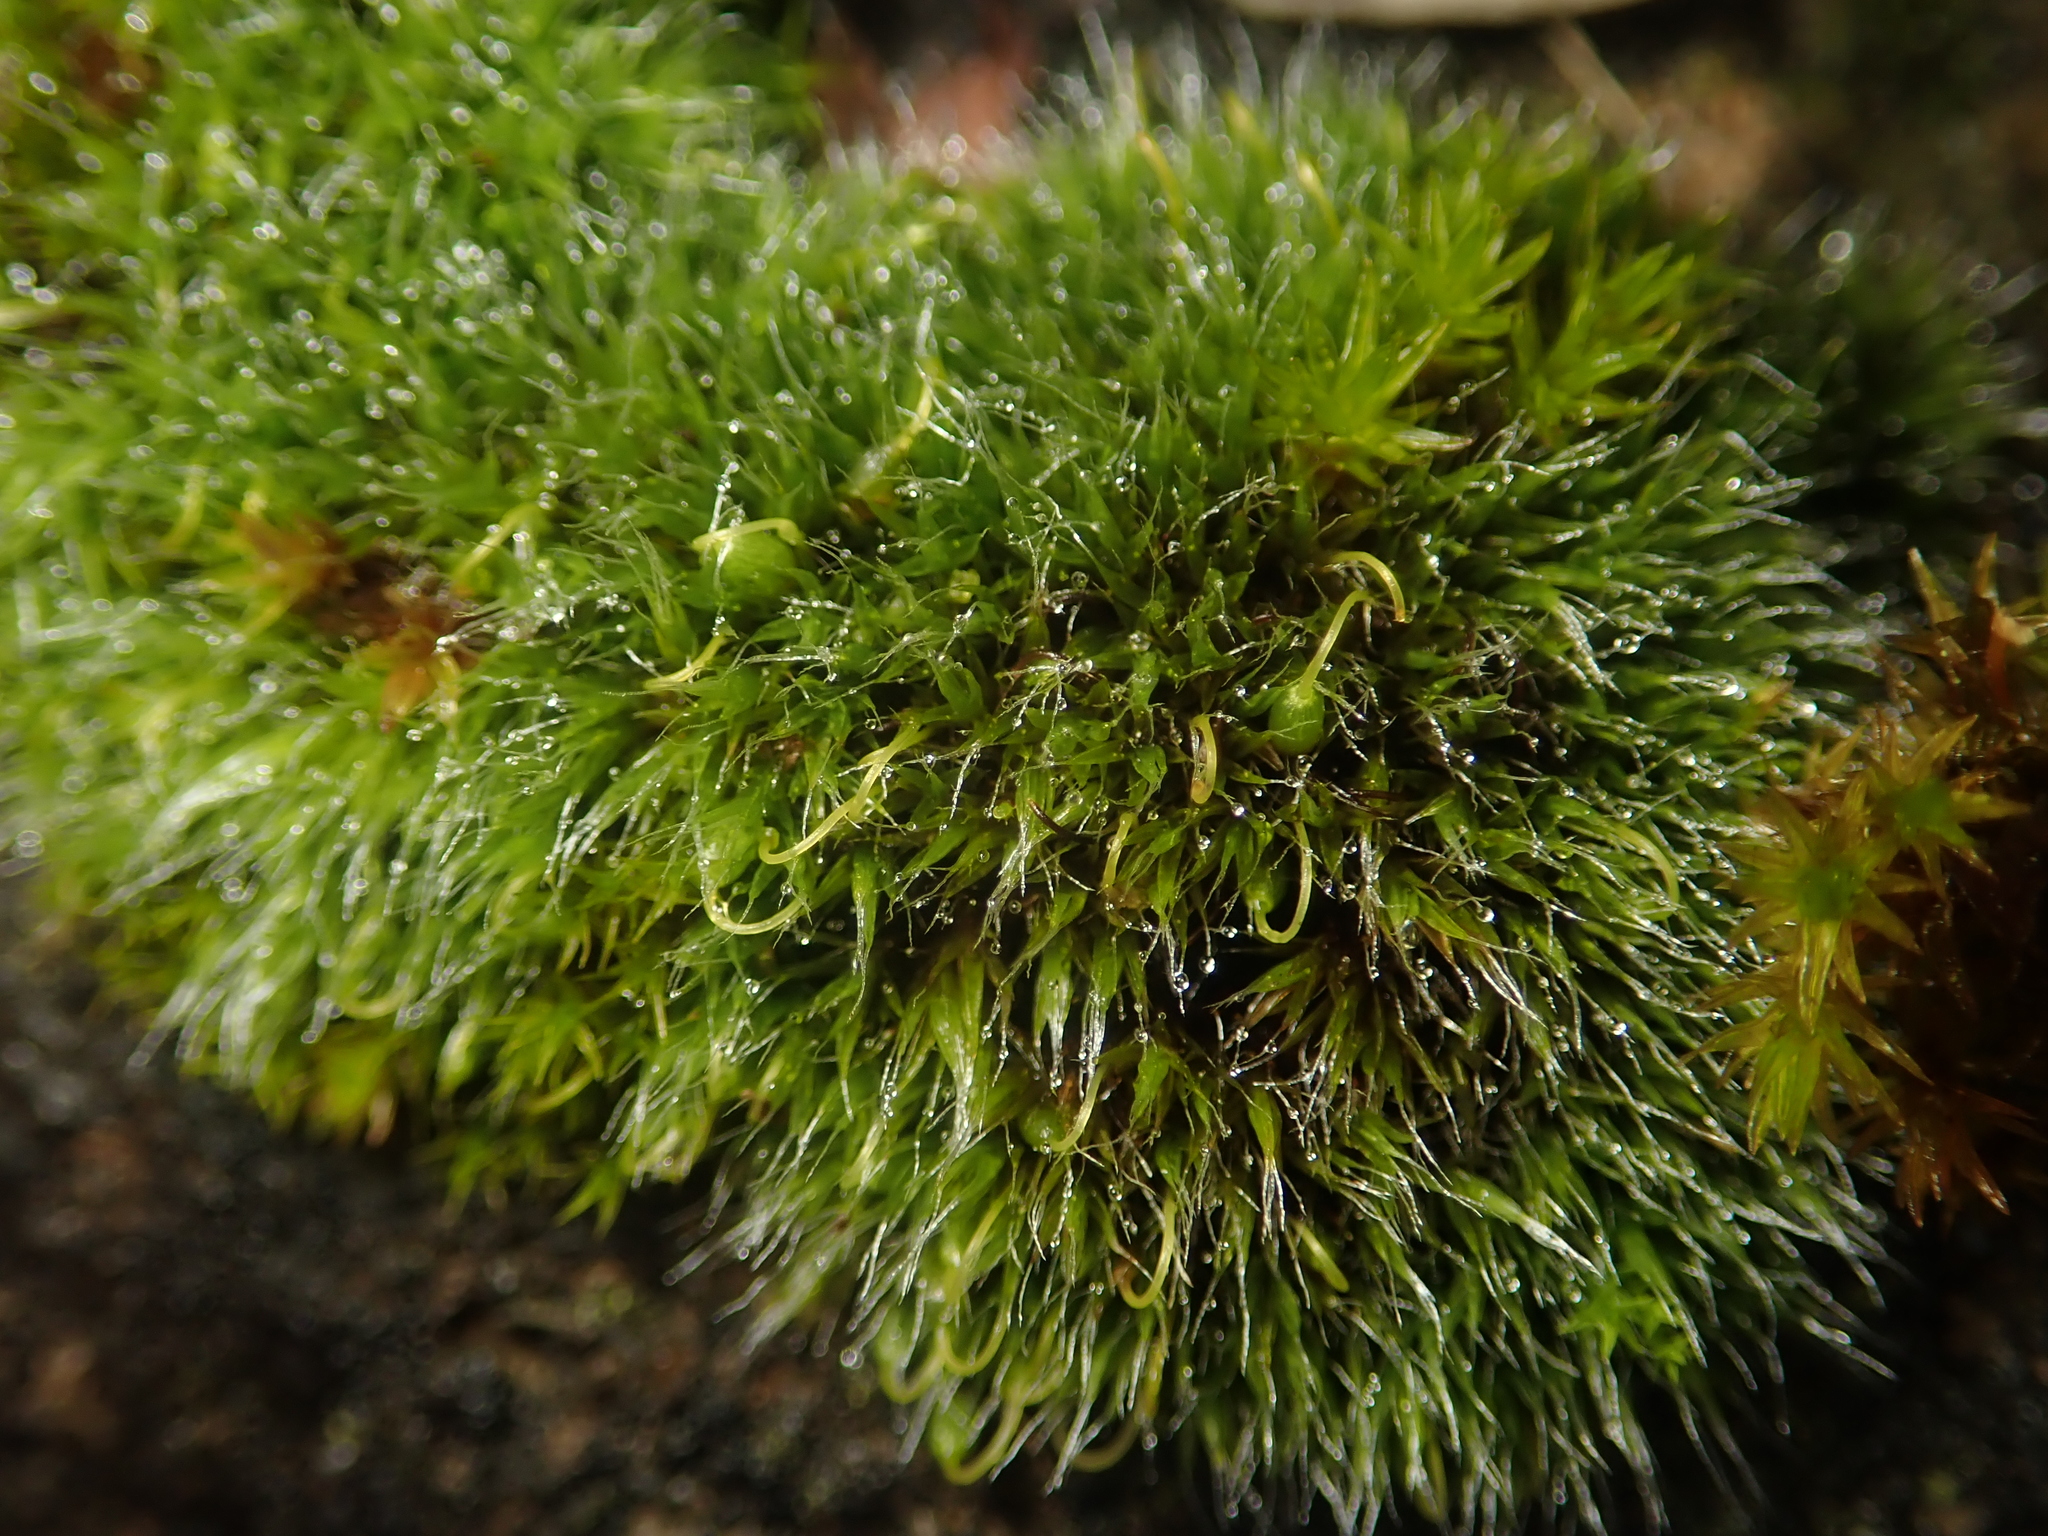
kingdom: Plantae
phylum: Bryophyta
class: Bryopsida
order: Grimmiales
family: Grimmiaceae
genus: Grimmia
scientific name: Grimmia pulvinata
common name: Grey-cushioned grimmia
